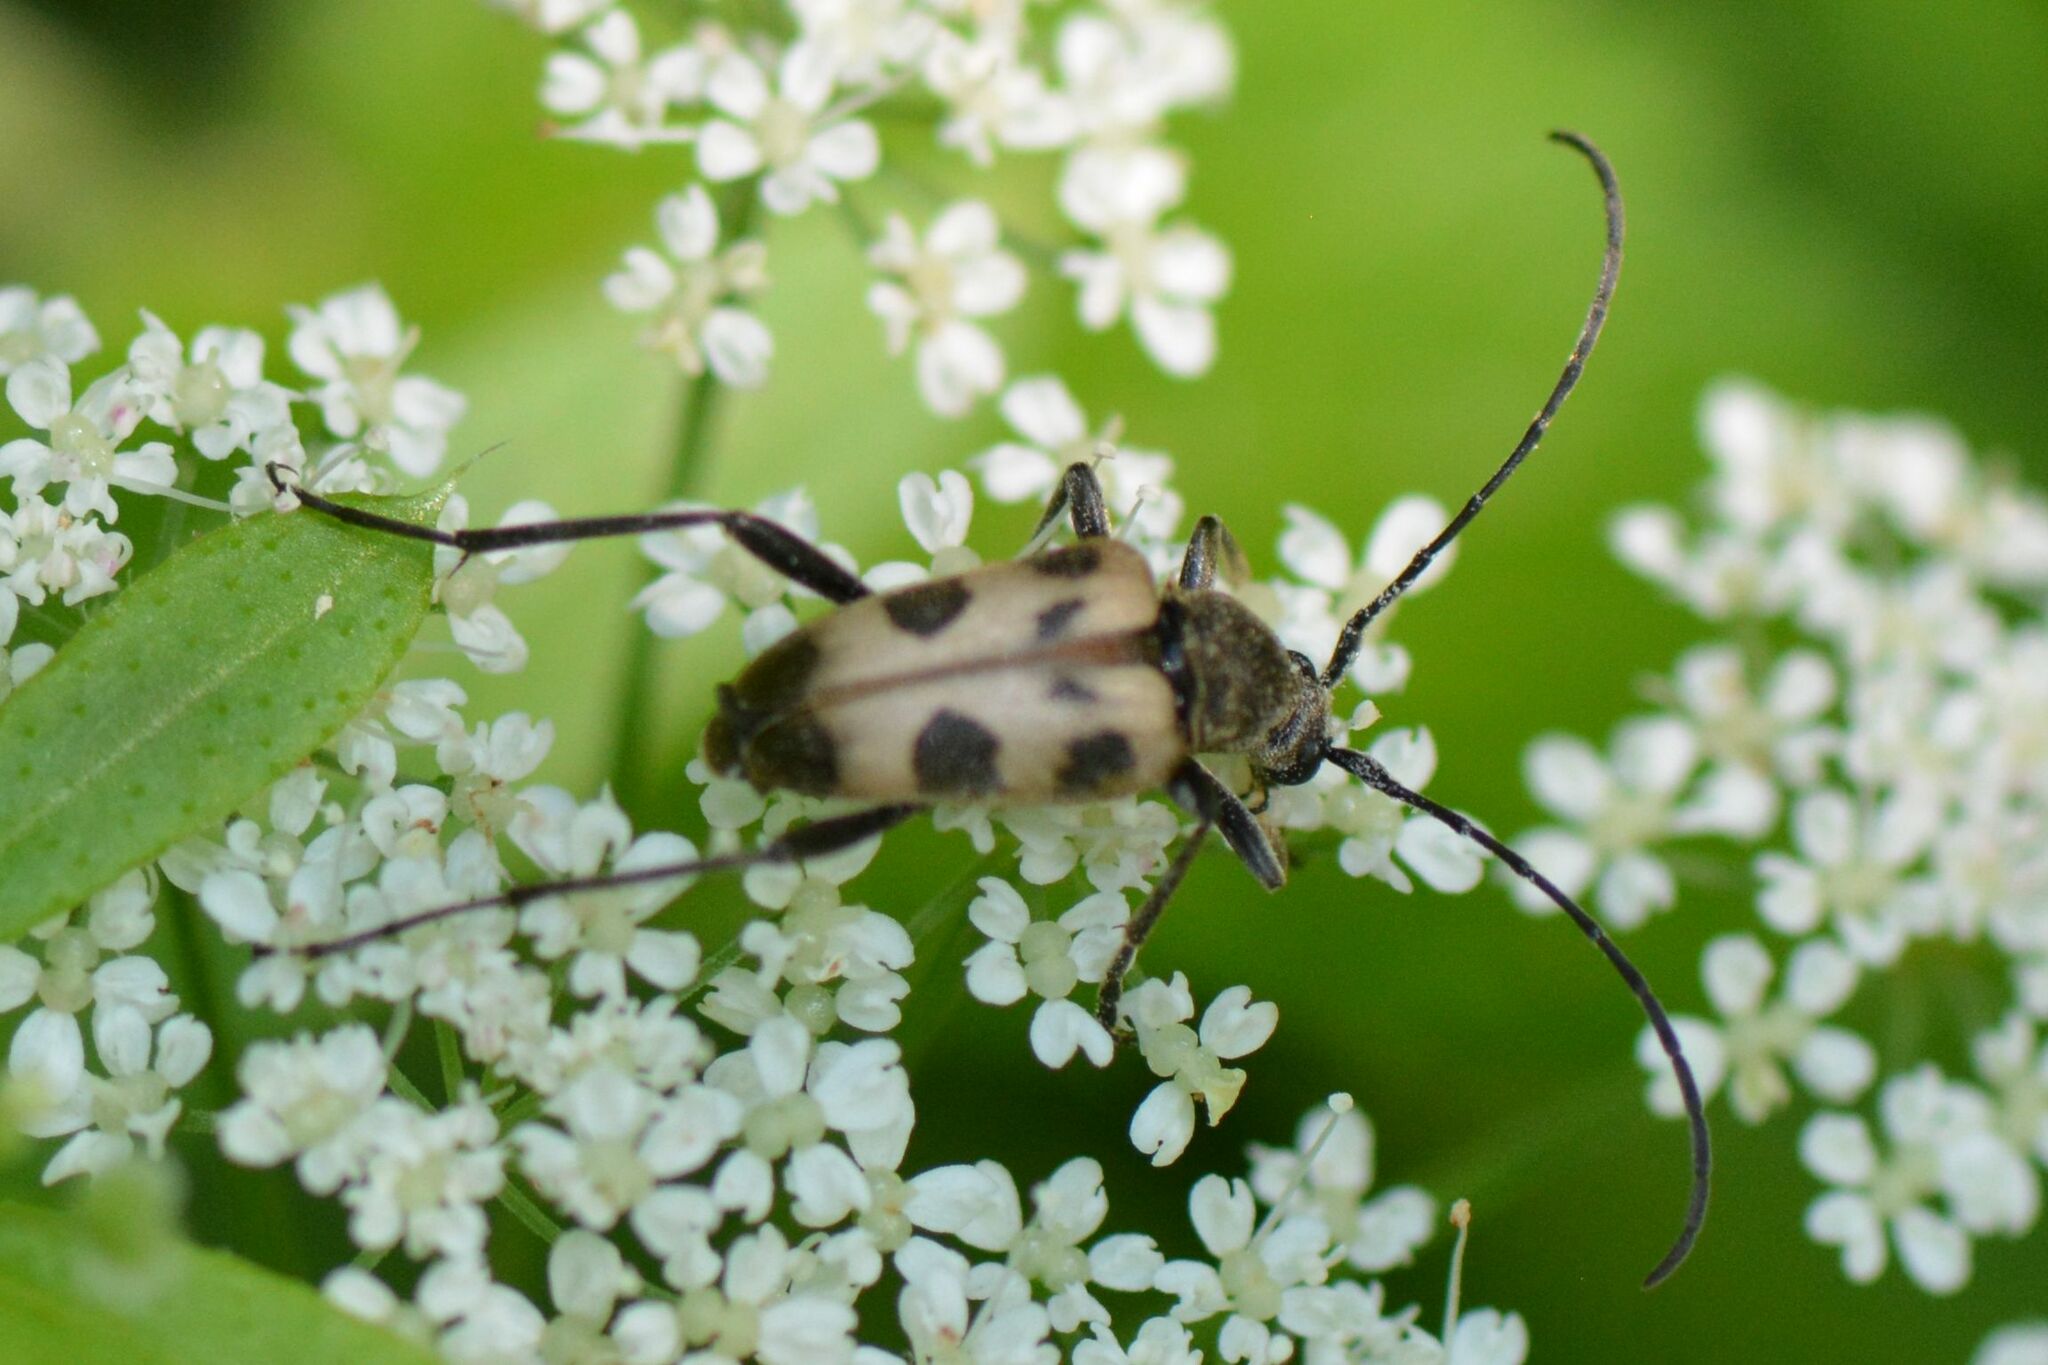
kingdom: Animalia
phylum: Arthropoda
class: Insecta
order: Coleoptera
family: Cerambycidae
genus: Pachytodes
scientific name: Pachytodes cerambyciformis
